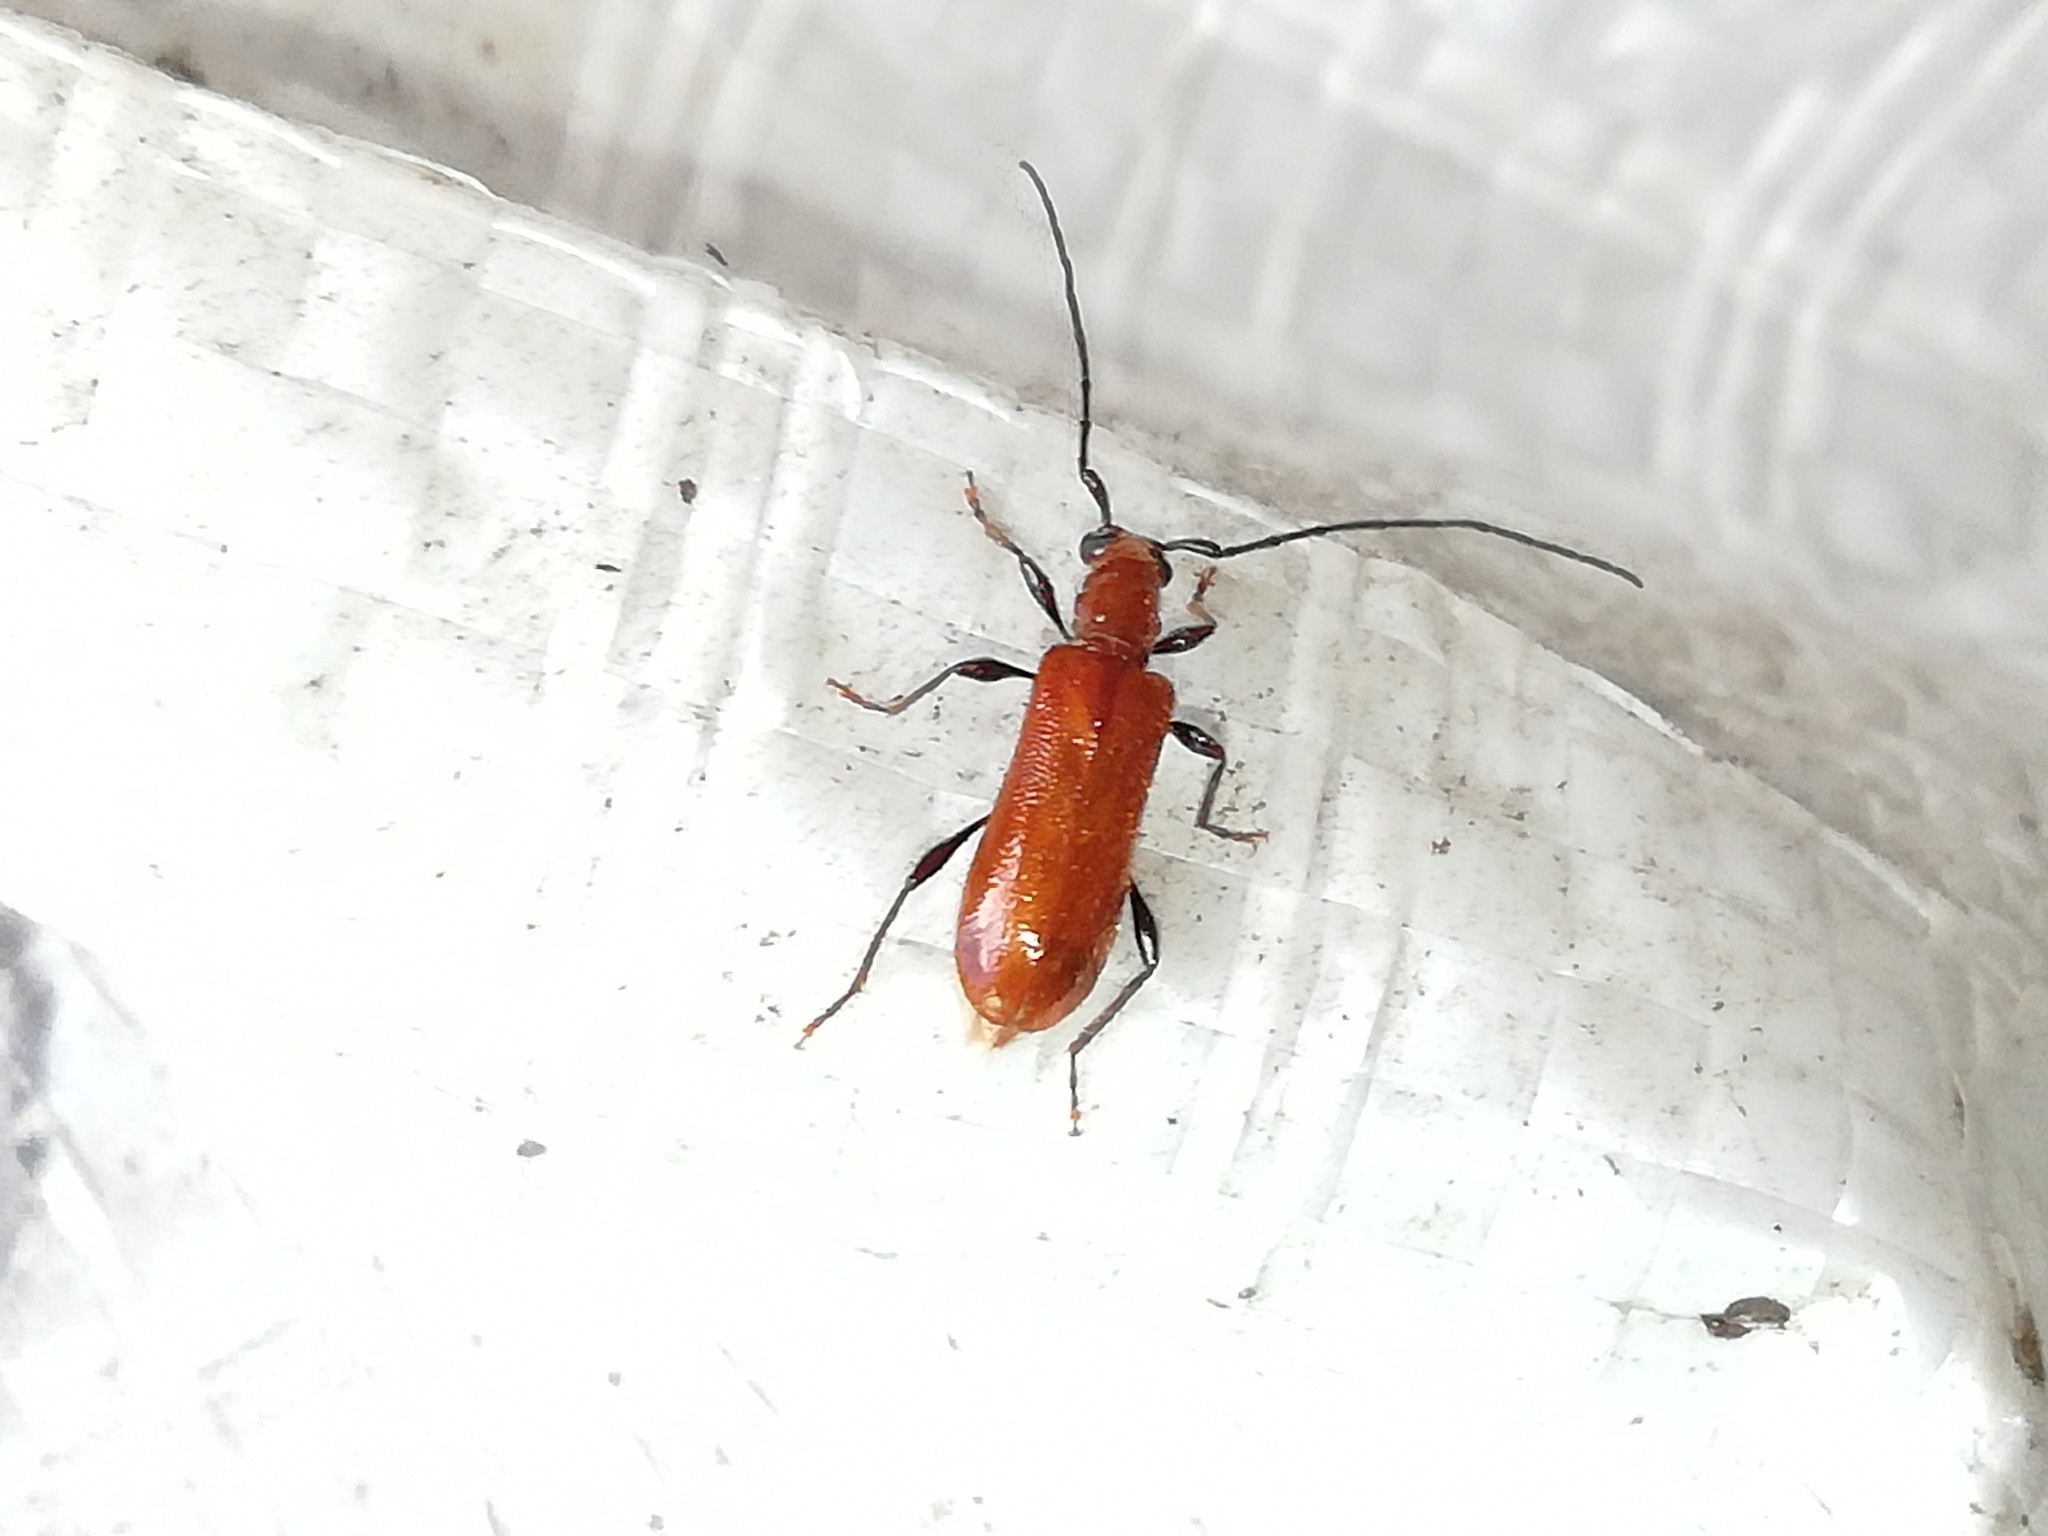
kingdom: Animalia
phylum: Arthropoda
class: Insecta
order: Coleoptera
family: Cerambycidae
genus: Obrium
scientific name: Obrium cantharinum
